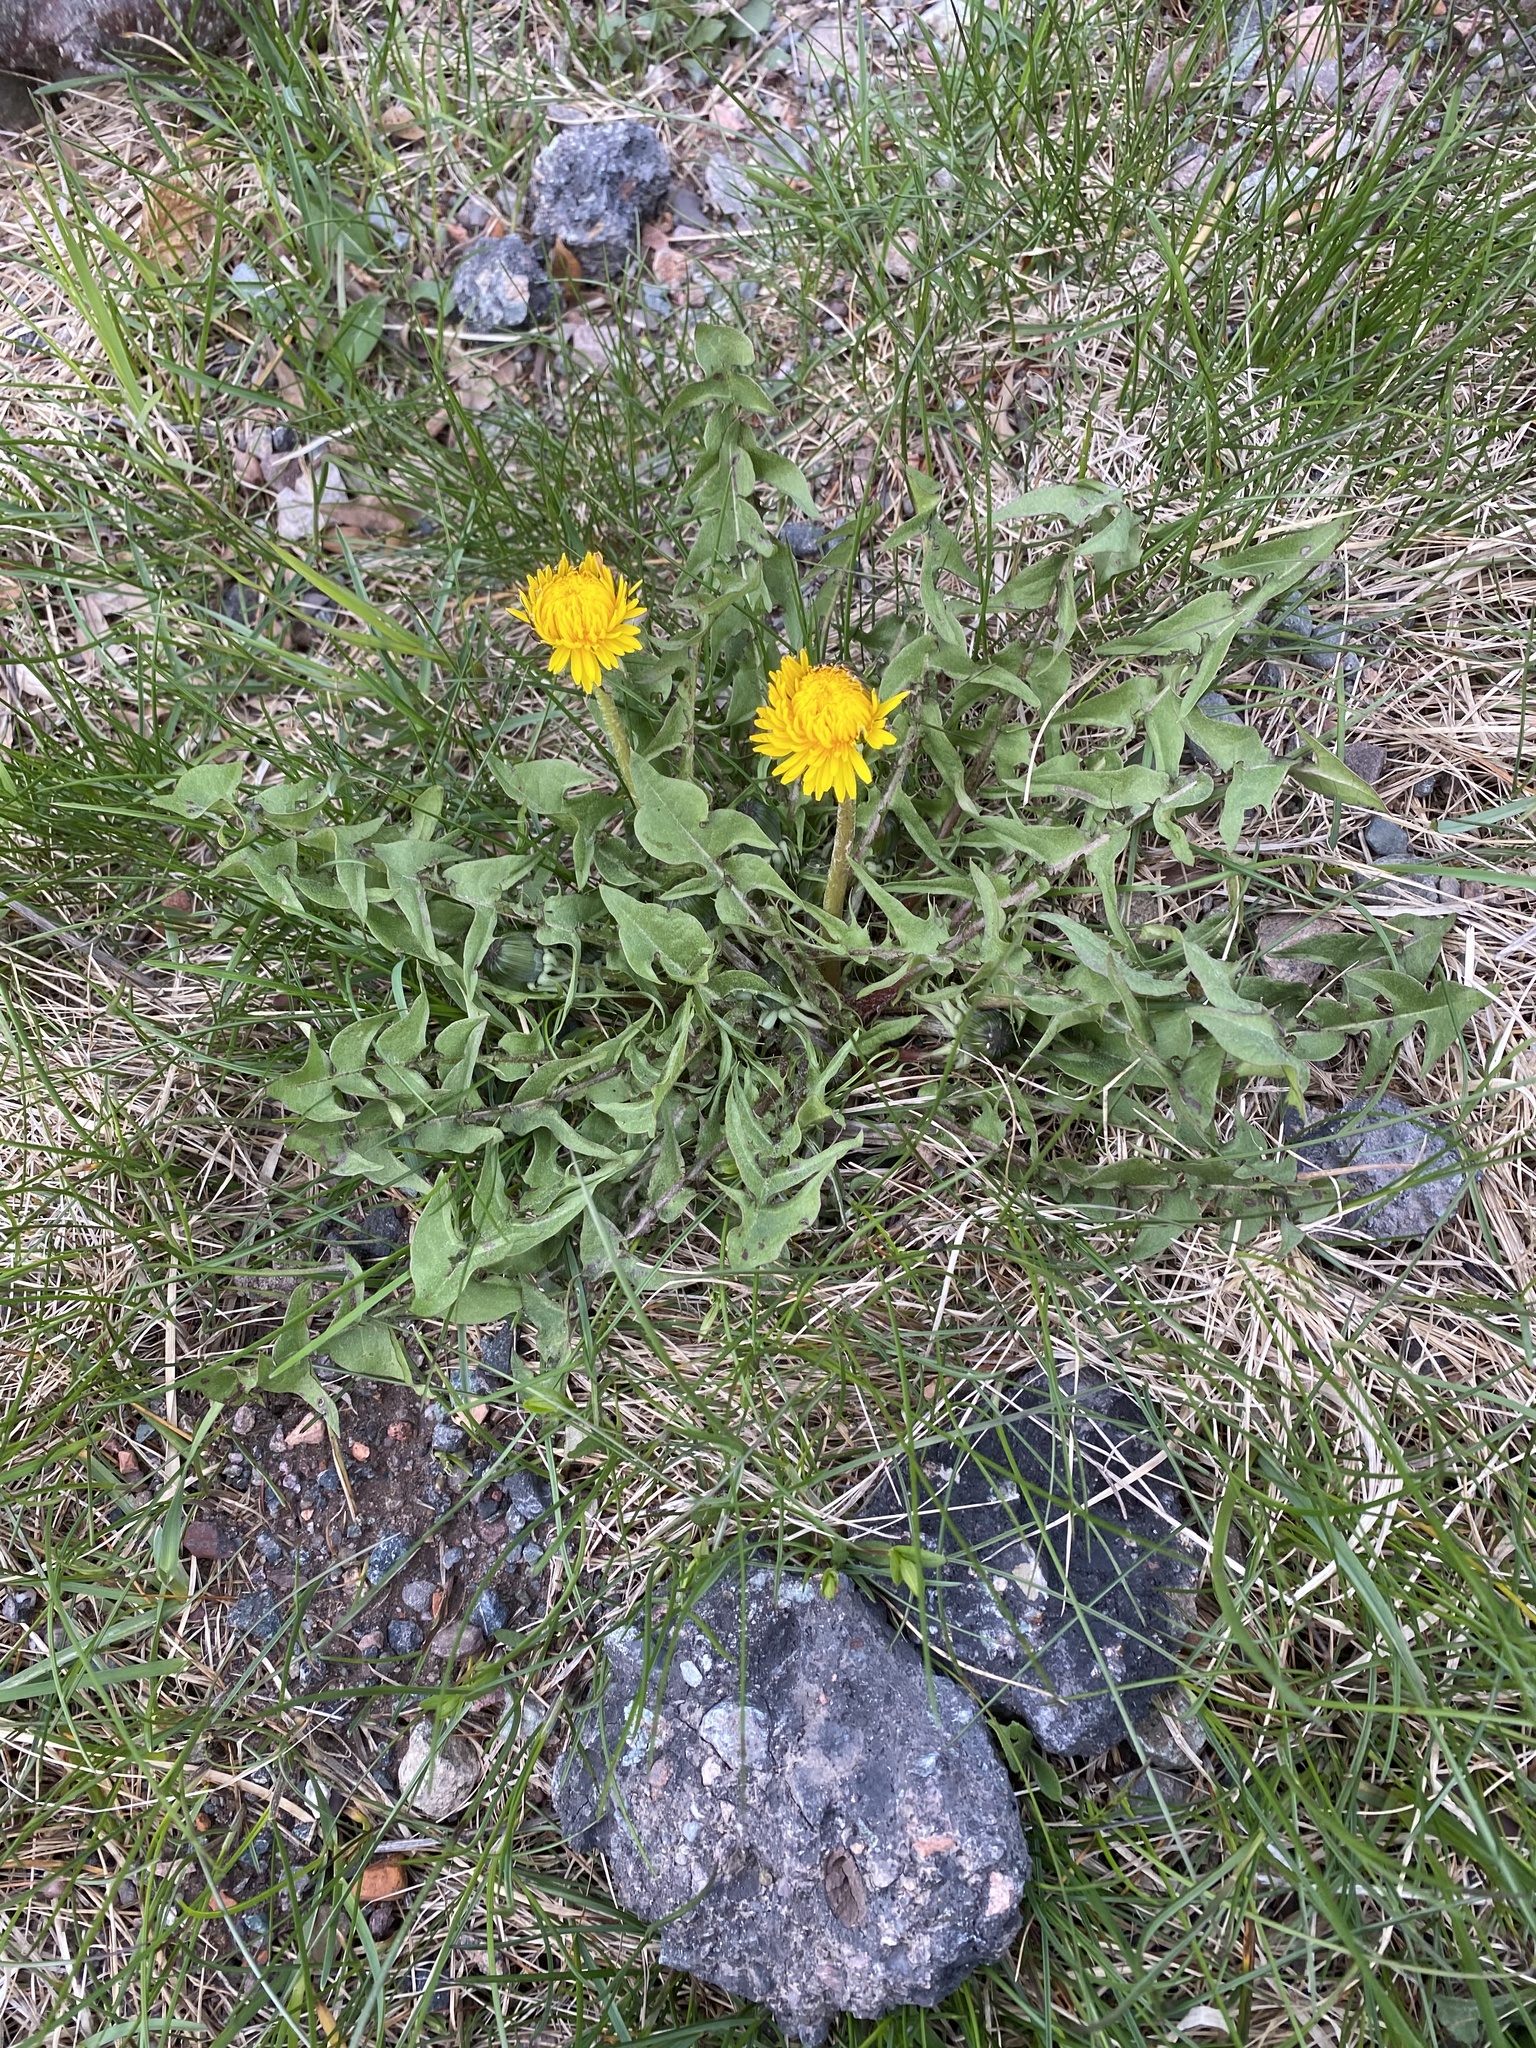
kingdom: Plantae
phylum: Tracheophyta
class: Magnoliopsida
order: Asterales
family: Asteraceae
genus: Taraxacum
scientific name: Taraxacum officinale
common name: Common dandelion
